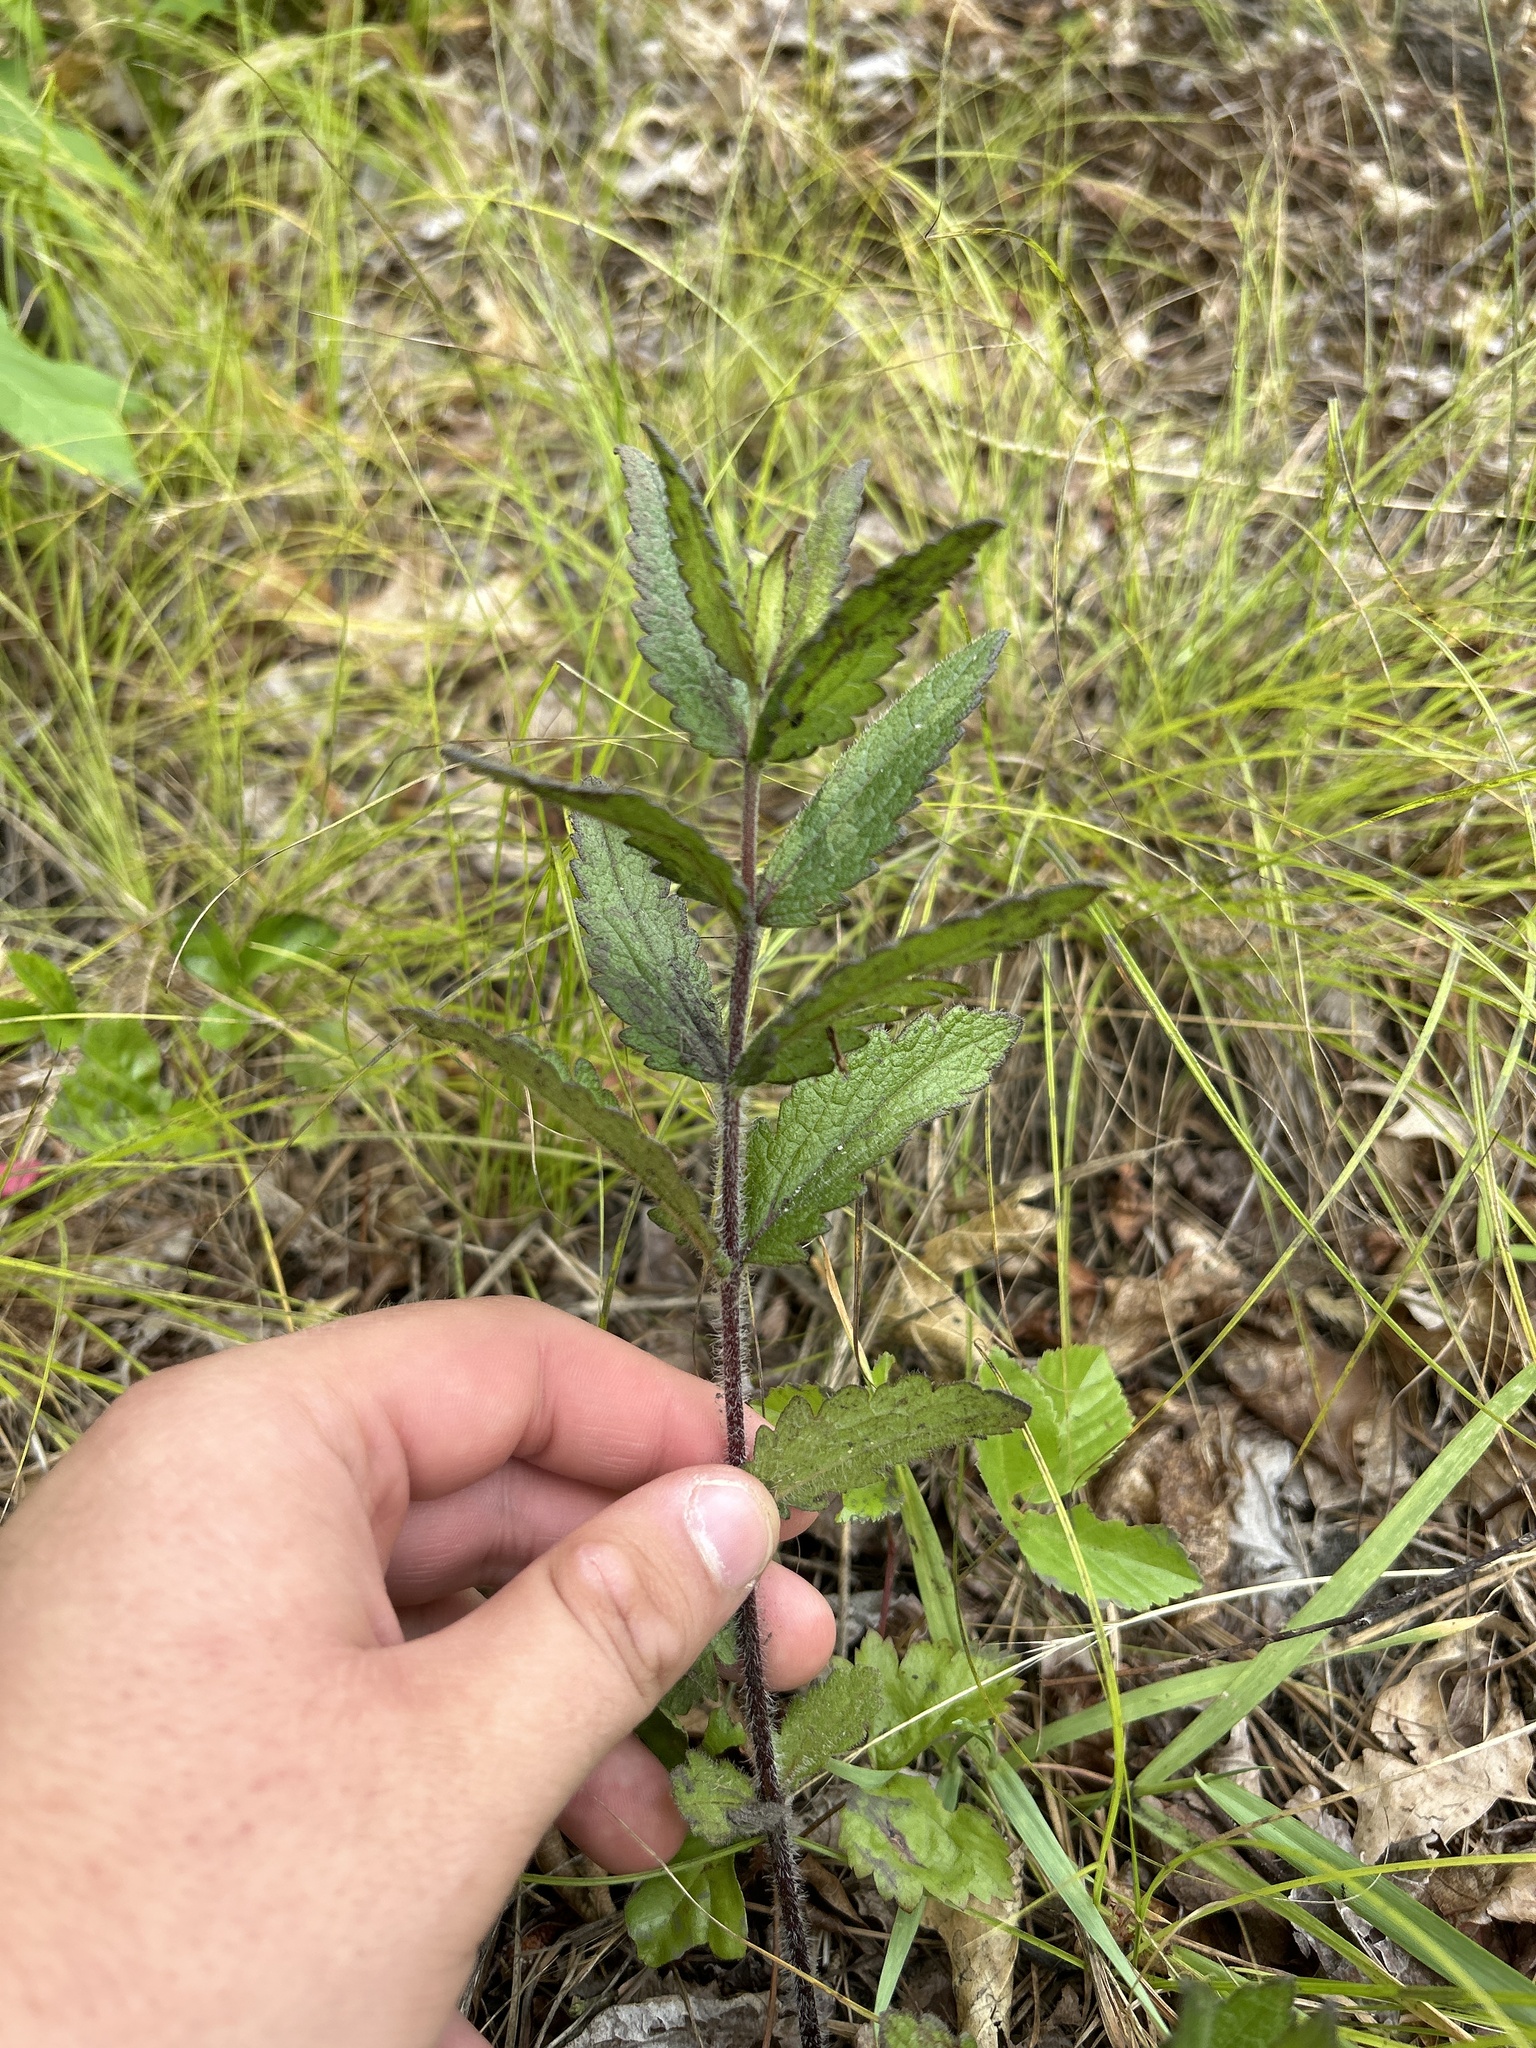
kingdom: Plantae
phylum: Tracheophyta
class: Magnoliopsida
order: Asterales
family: Asteraceae
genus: Eupatorium
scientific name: Eupatorium pilosum
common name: Rough boneset
